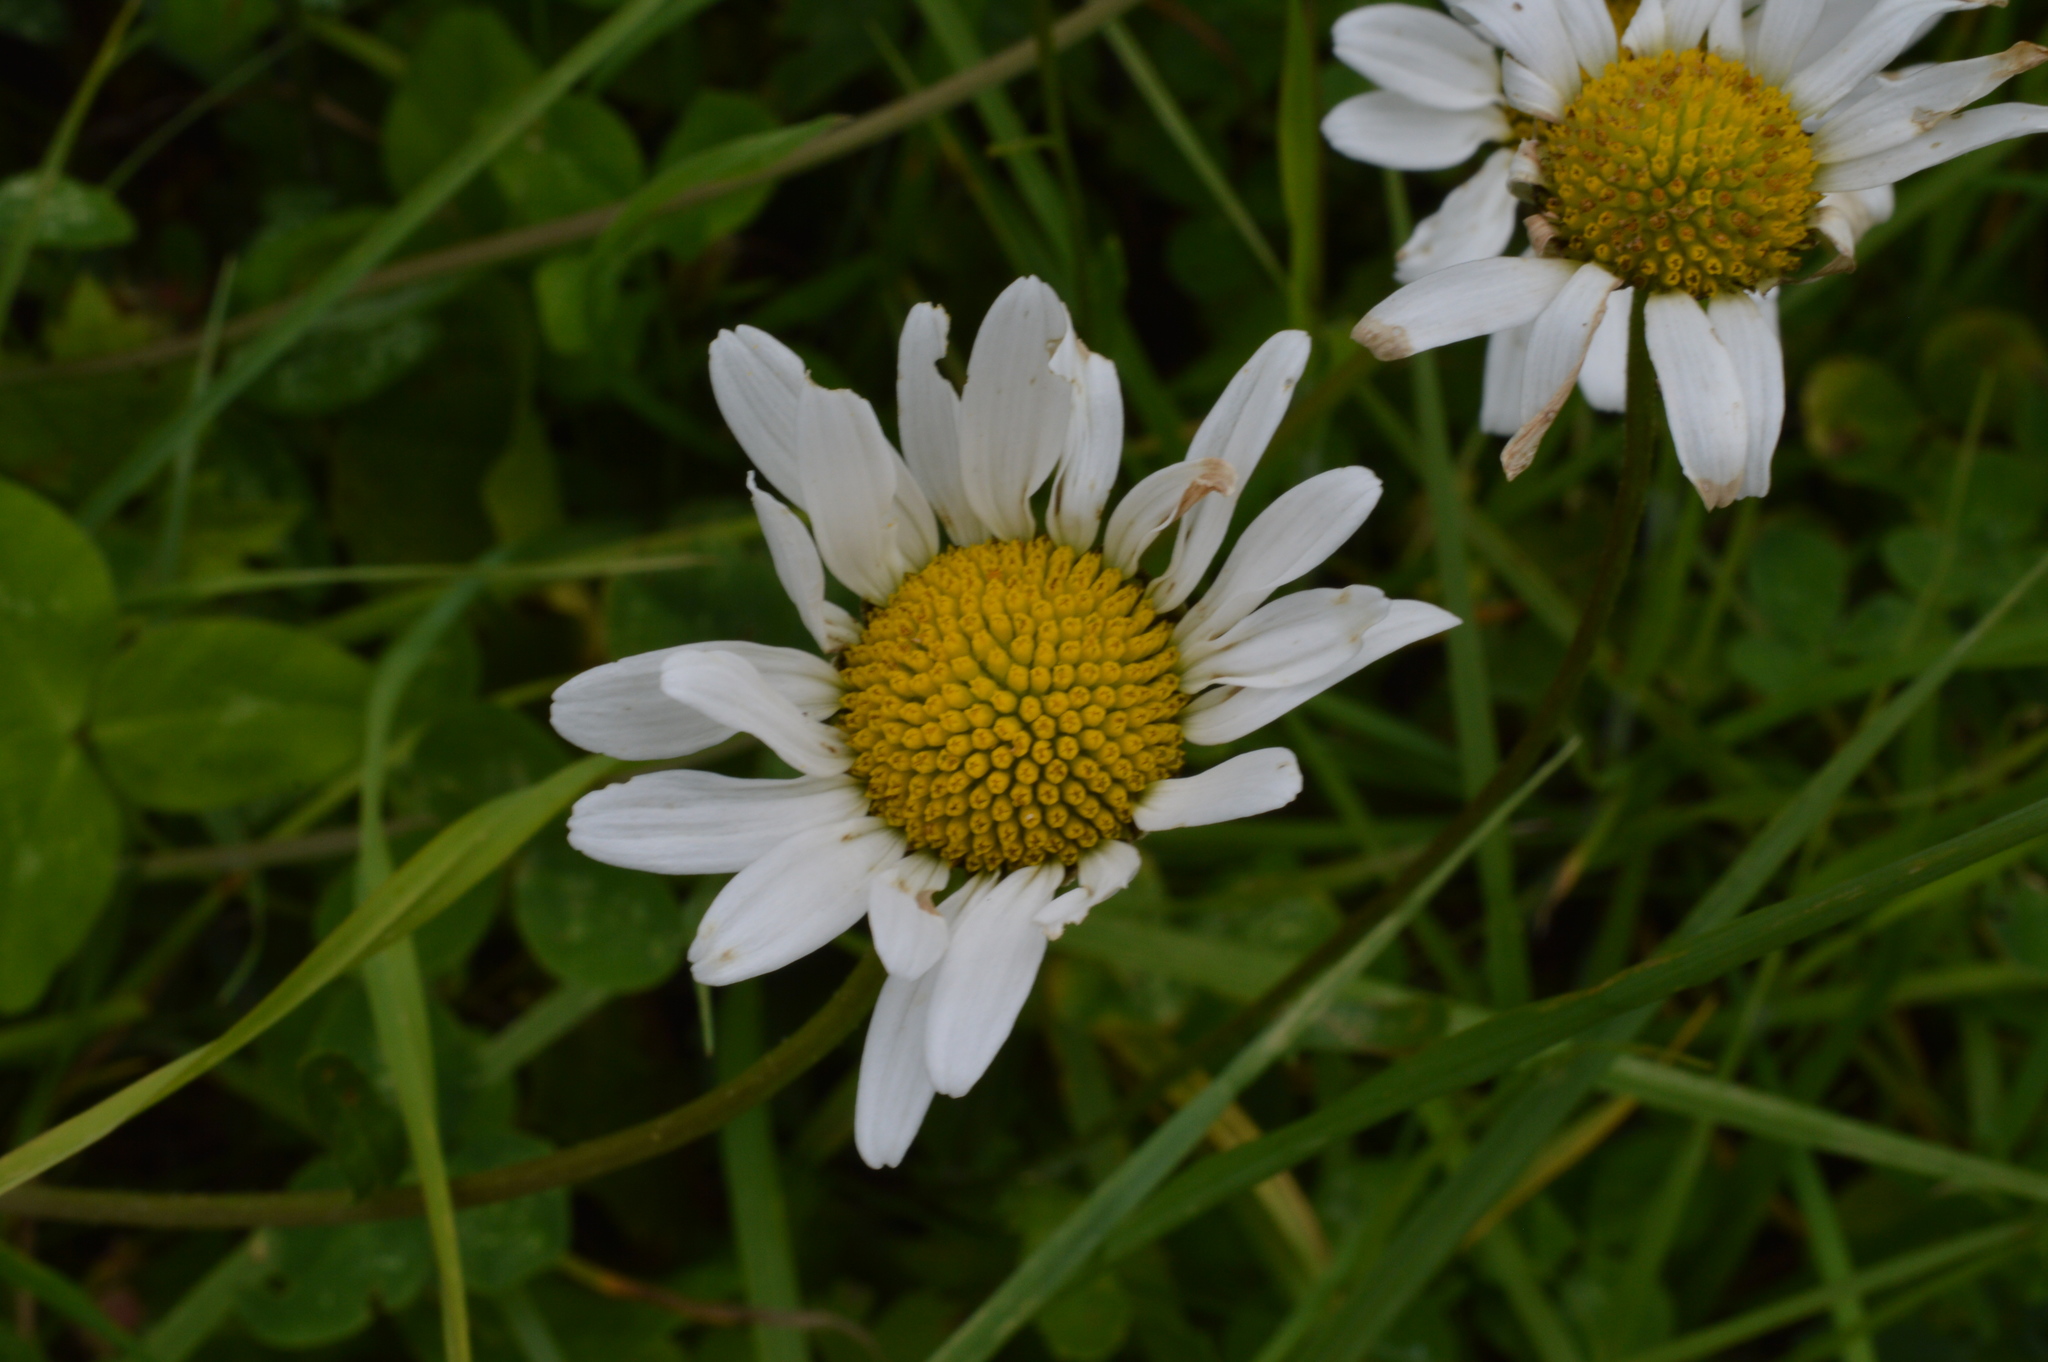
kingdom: Plantae
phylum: Tracheophyta
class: Magnoliopsida
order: Asterales
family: Asteraceae
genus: Leucanthemum
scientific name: Leucanthemum vulgare
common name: Oxeye daisy
